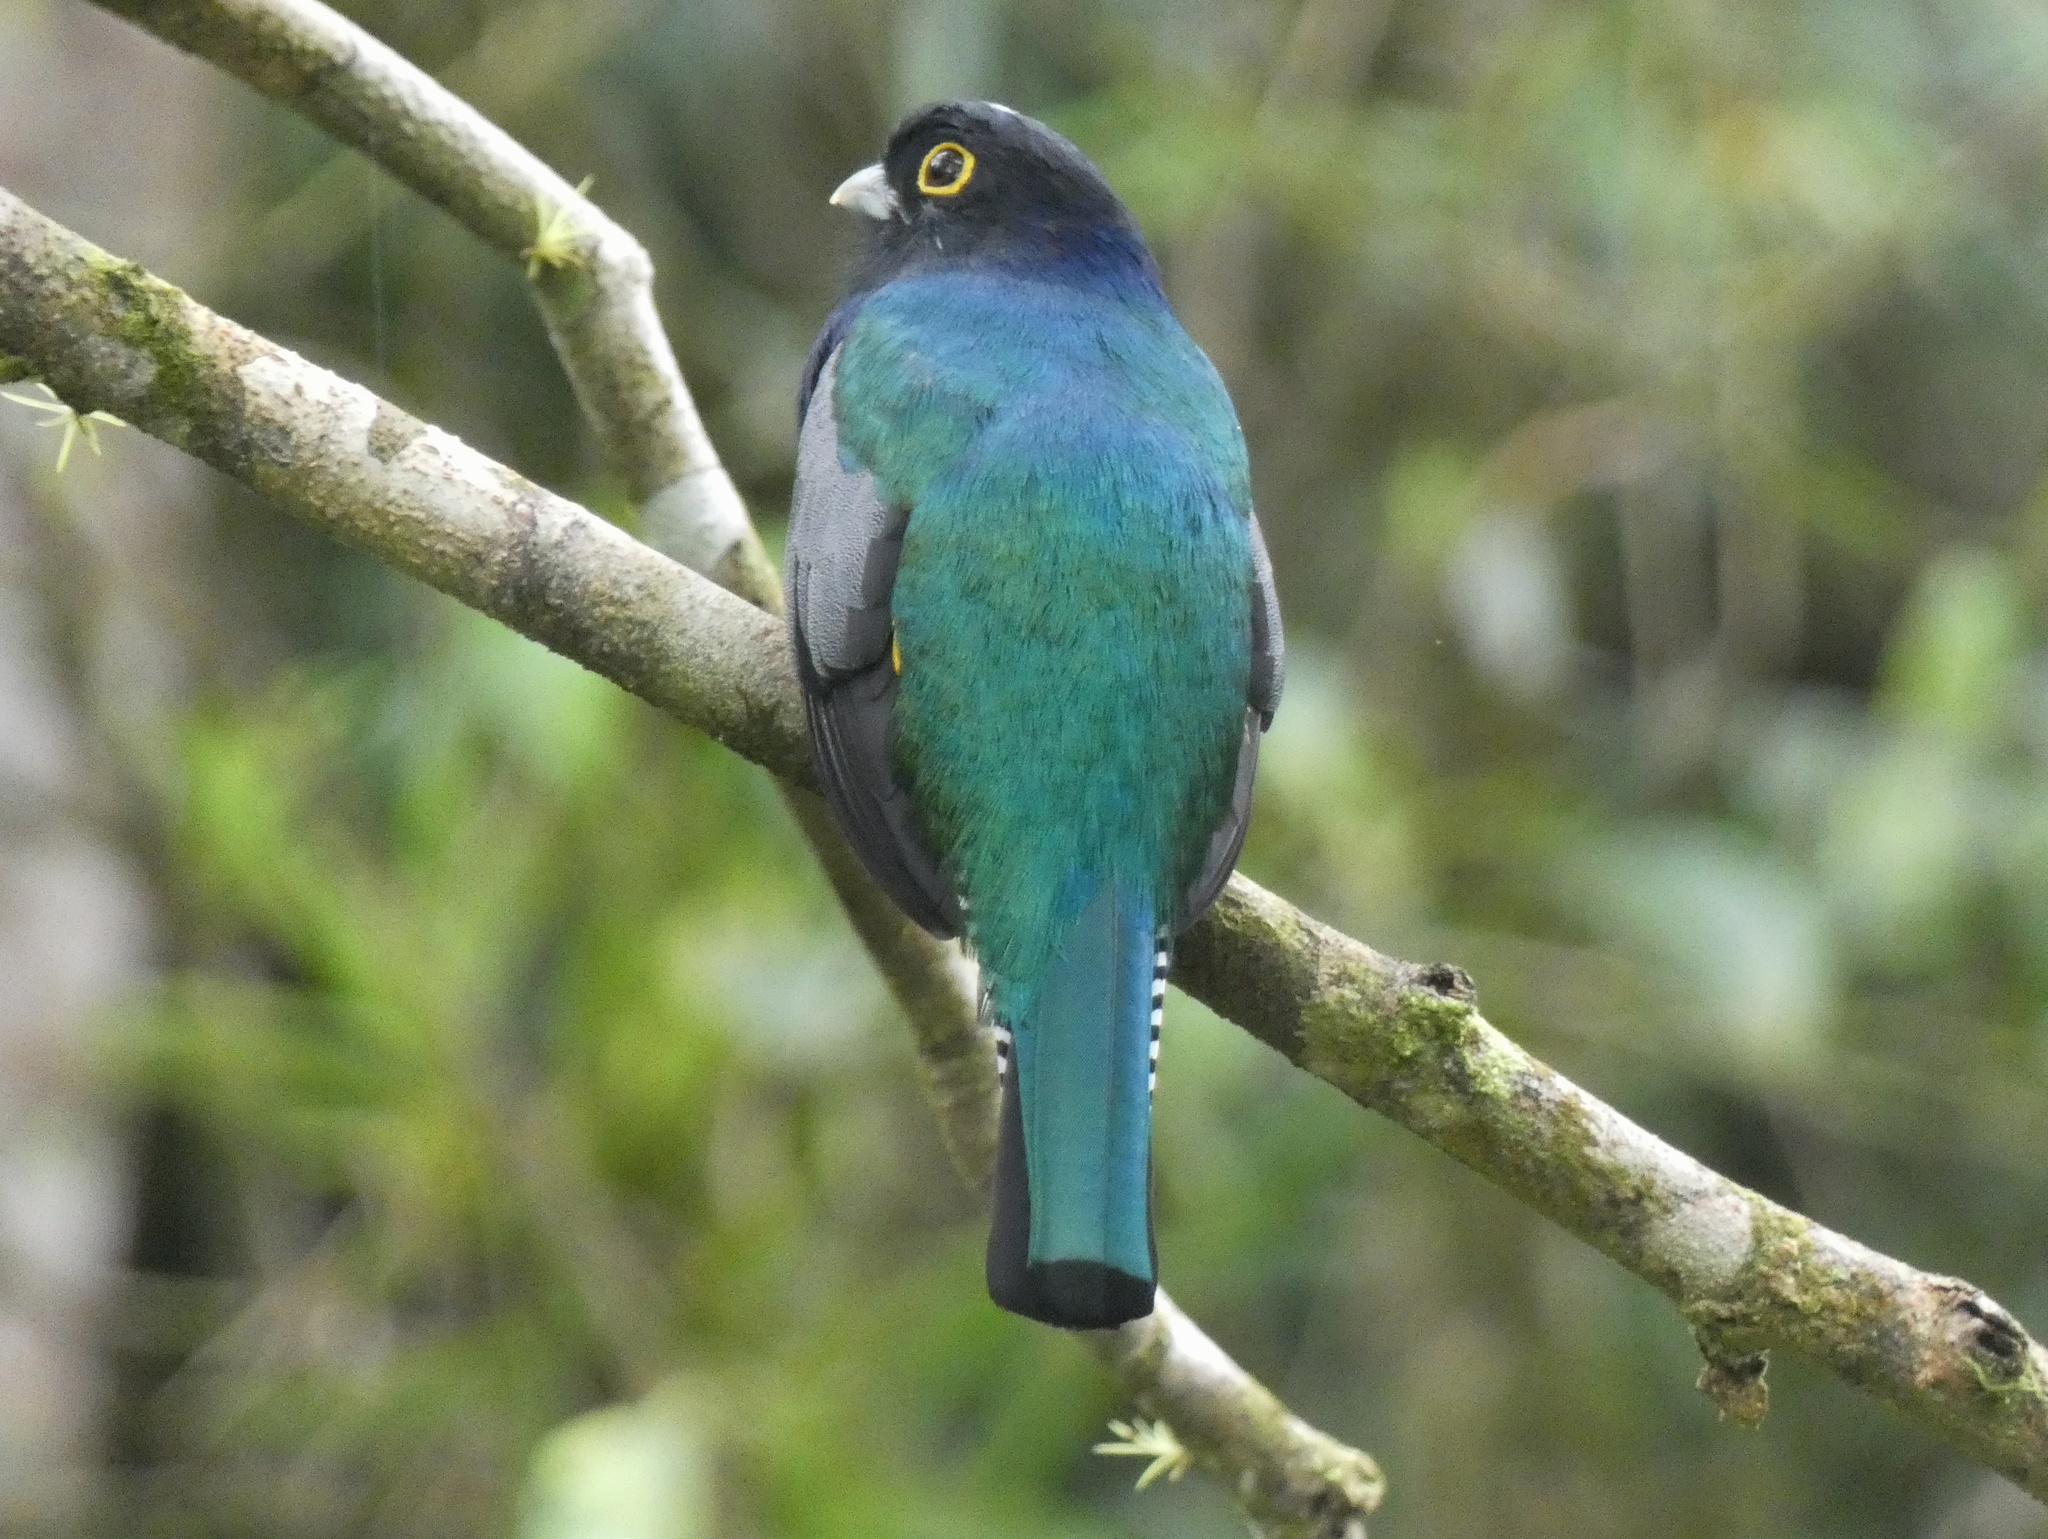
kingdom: Animalia
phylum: Chordata
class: Aves
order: Trogoniformes
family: Trogonidae
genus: Trogon
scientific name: Trogon caligatus
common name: Gartered trogon
